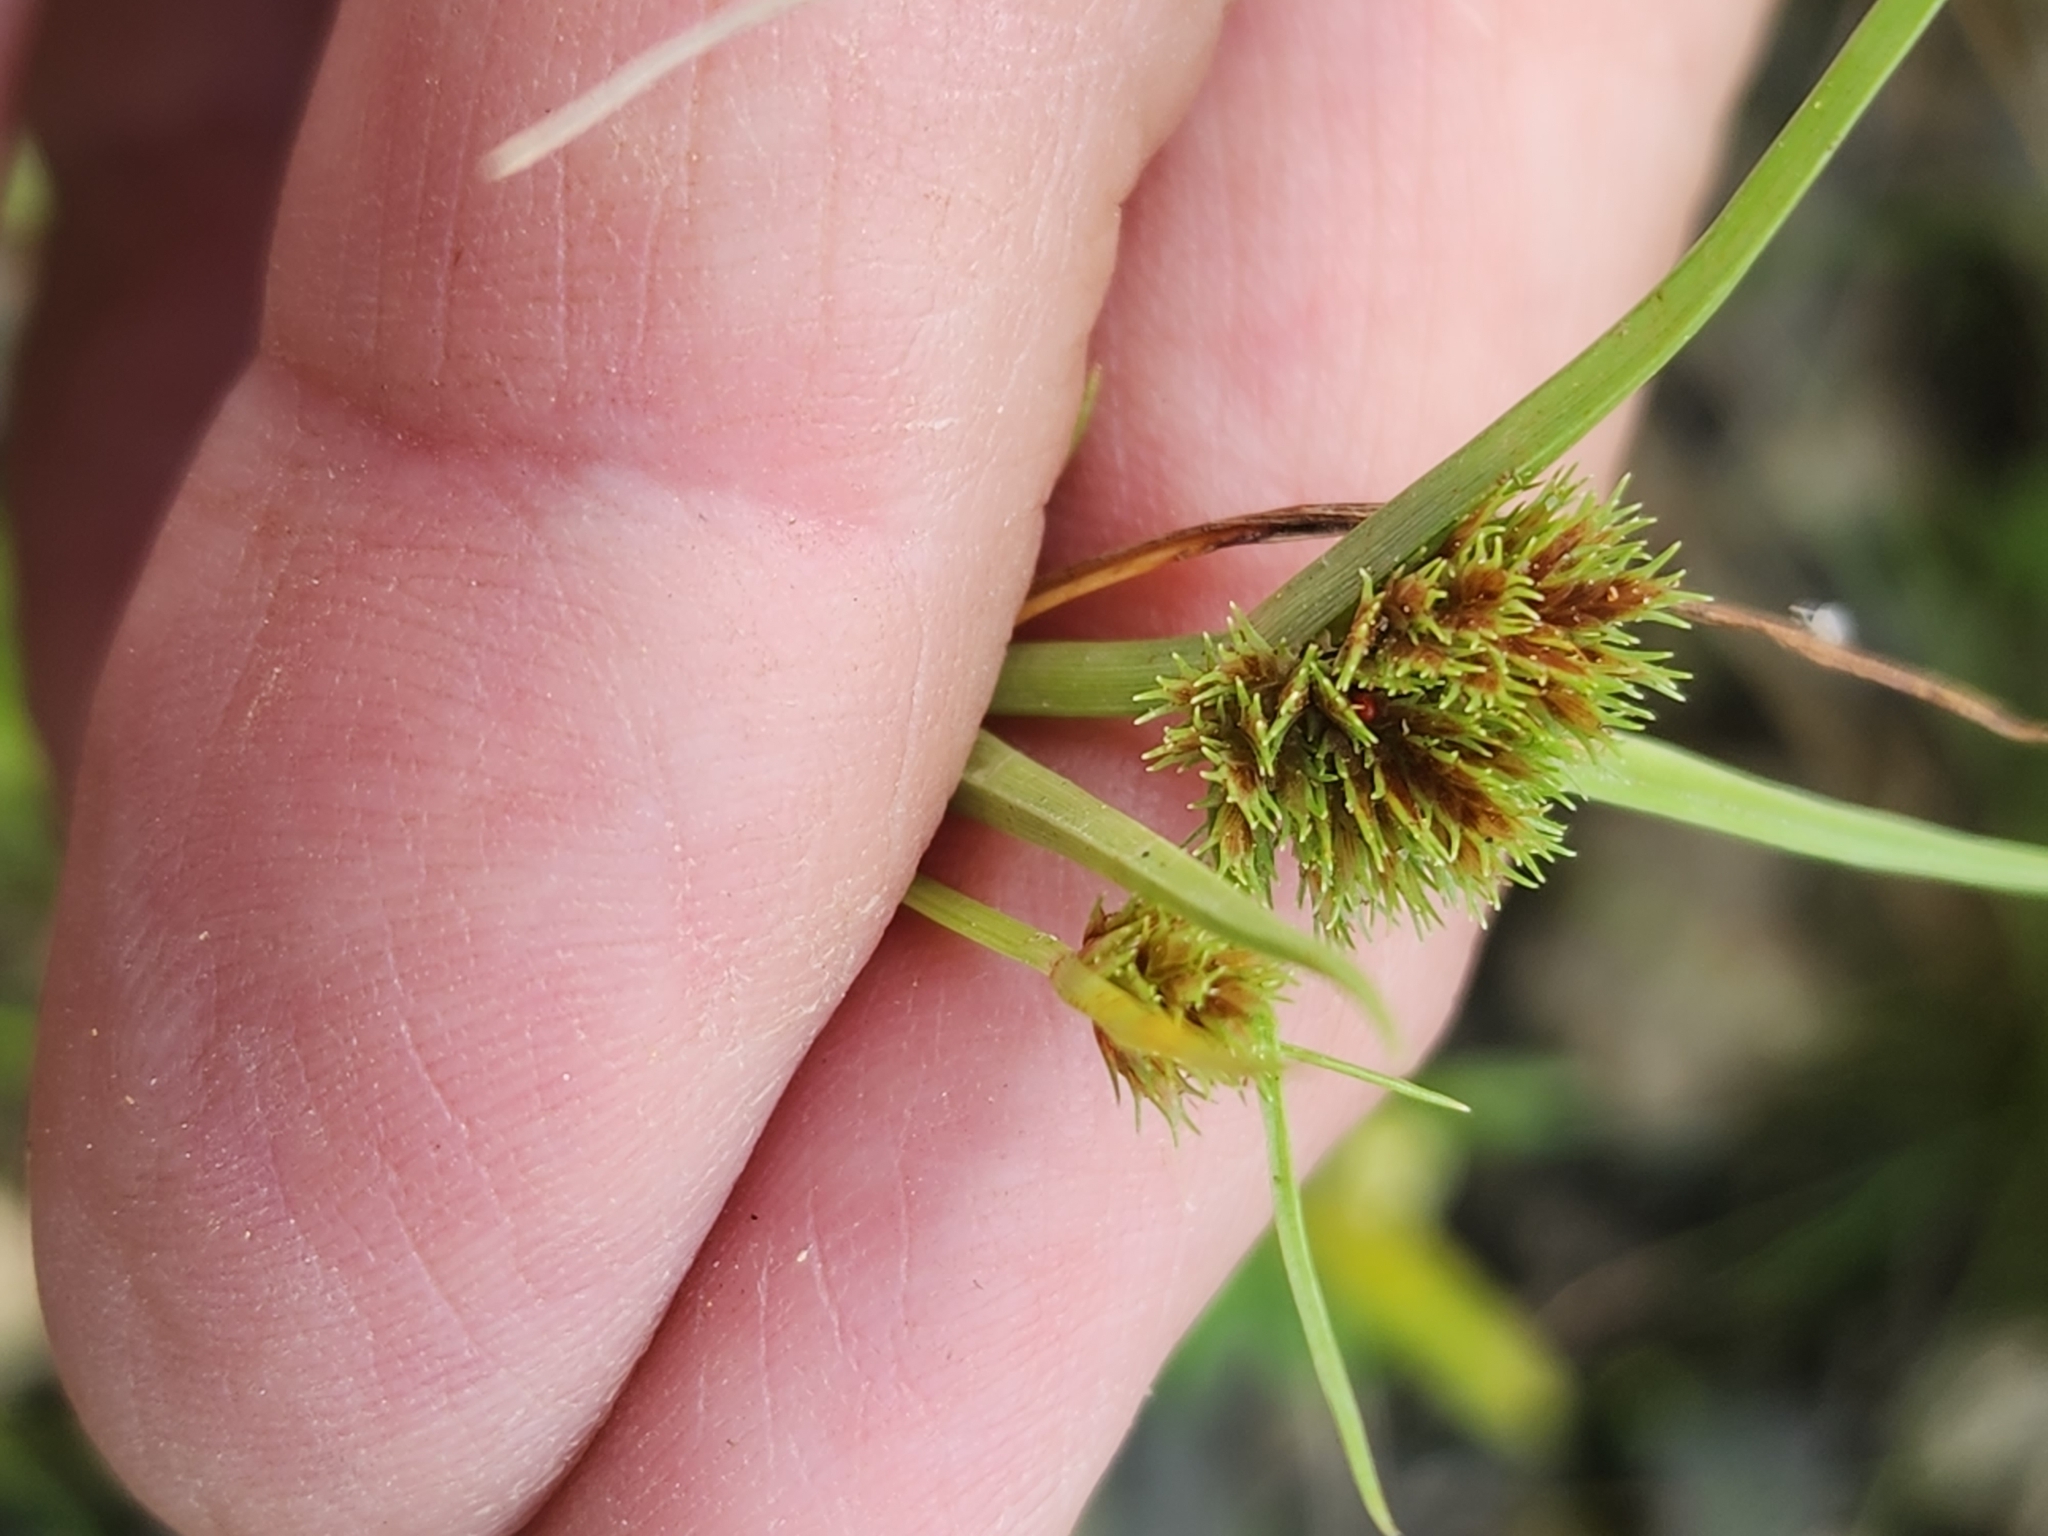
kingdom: Plantae
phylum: Tracheophyta
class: Liliopsida
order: Poales
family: Cyperaceae
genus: Cyperus
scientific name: Cyperus squarrosus
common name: Awned cyperus
